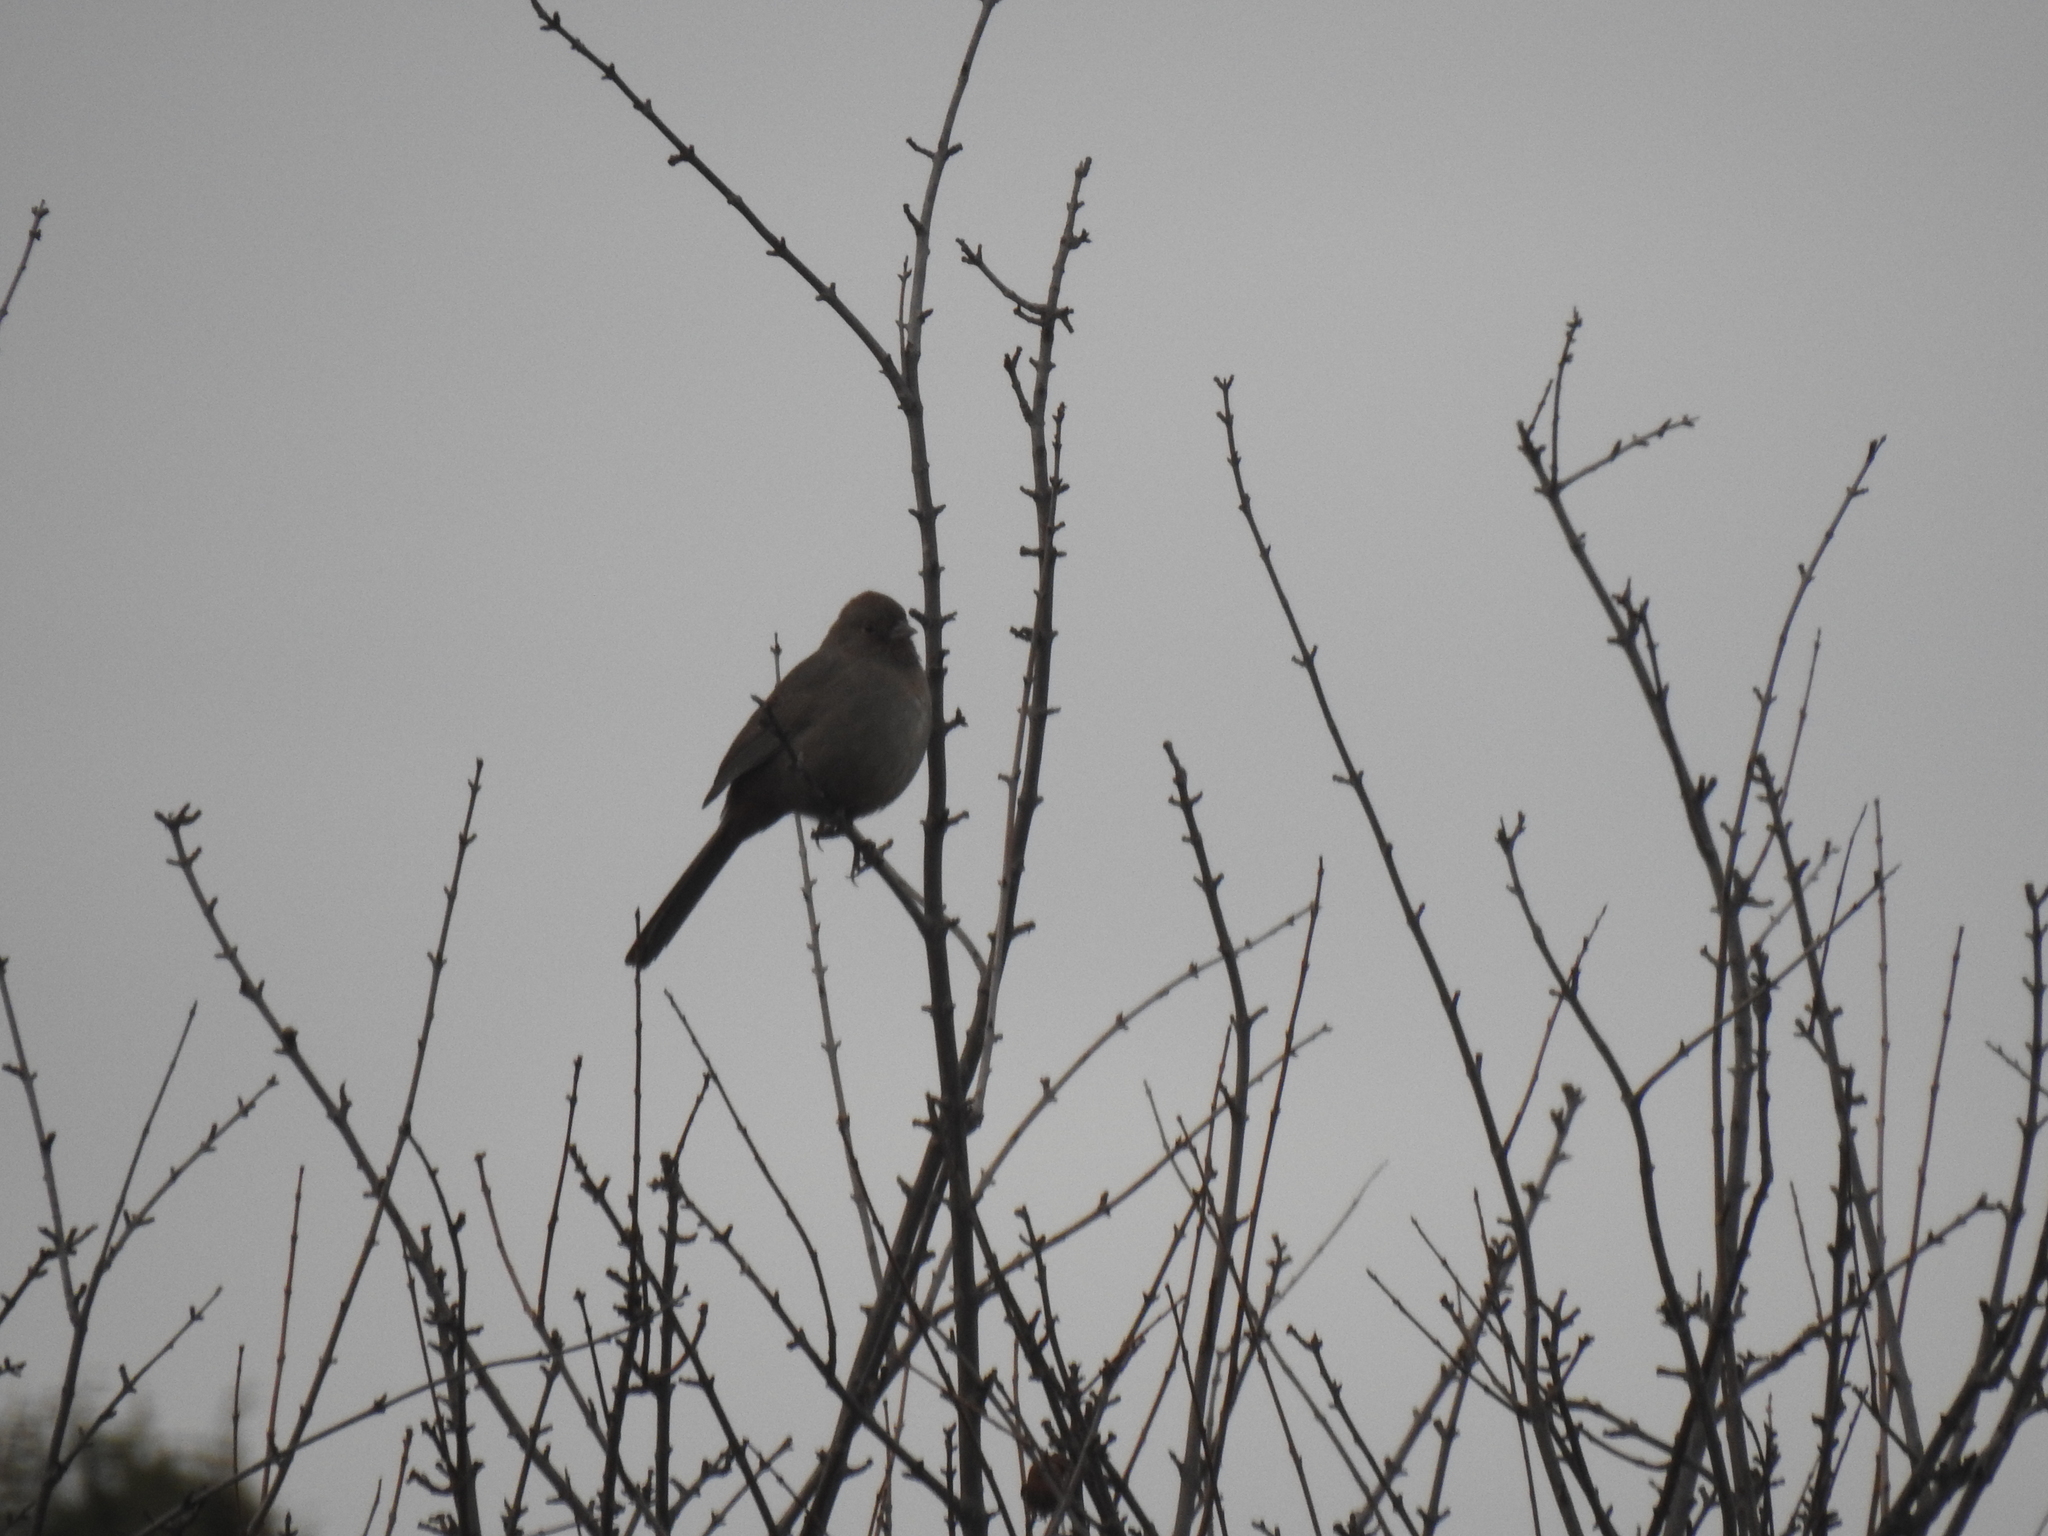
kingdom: Animalia
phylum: Chordata
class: Aves
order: Passeriformes
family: Passerellidae
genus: Melozone
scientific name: Melozone crissalis
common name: California towhee
